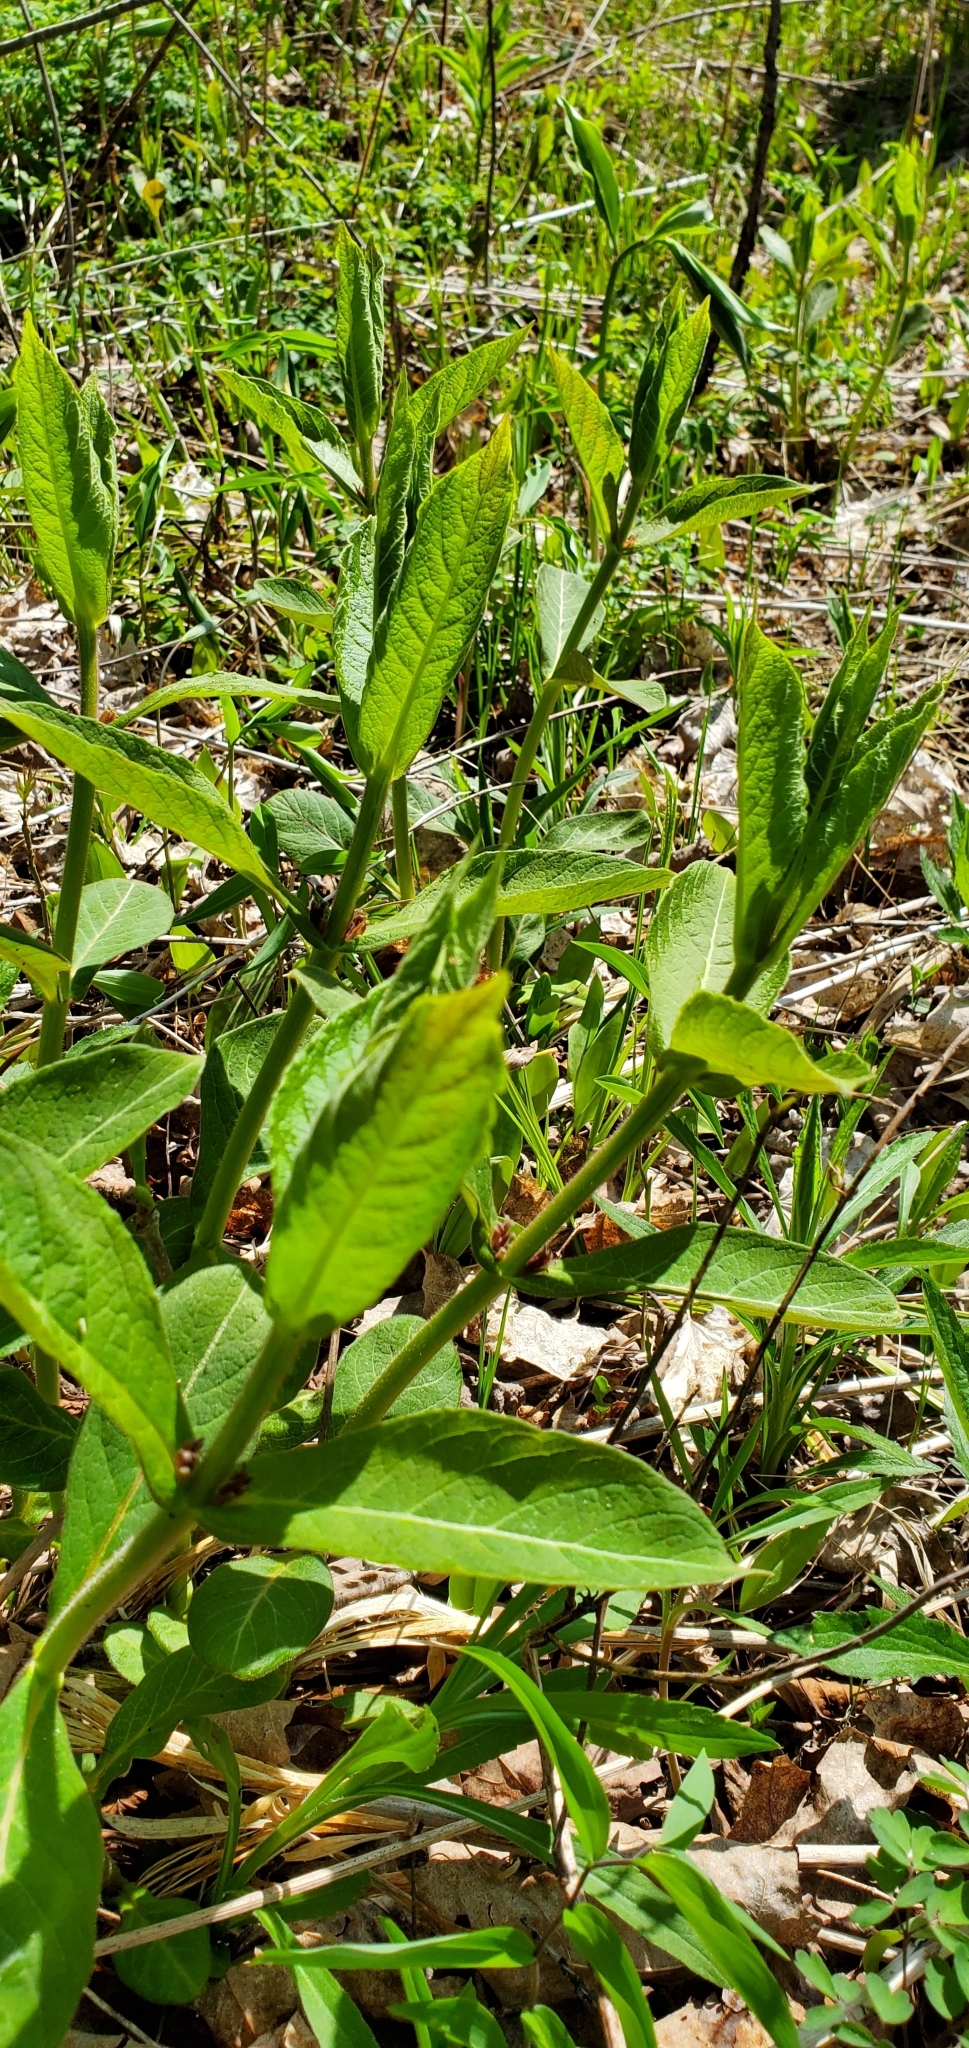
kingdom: Plantae
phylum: Tracheophyta
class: Magnoliopsida
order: Dipsacales
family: Caprifoliaceae
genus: Triosteum
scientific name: Triosteum aurantiacum
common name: Coffee tinker's-weed
